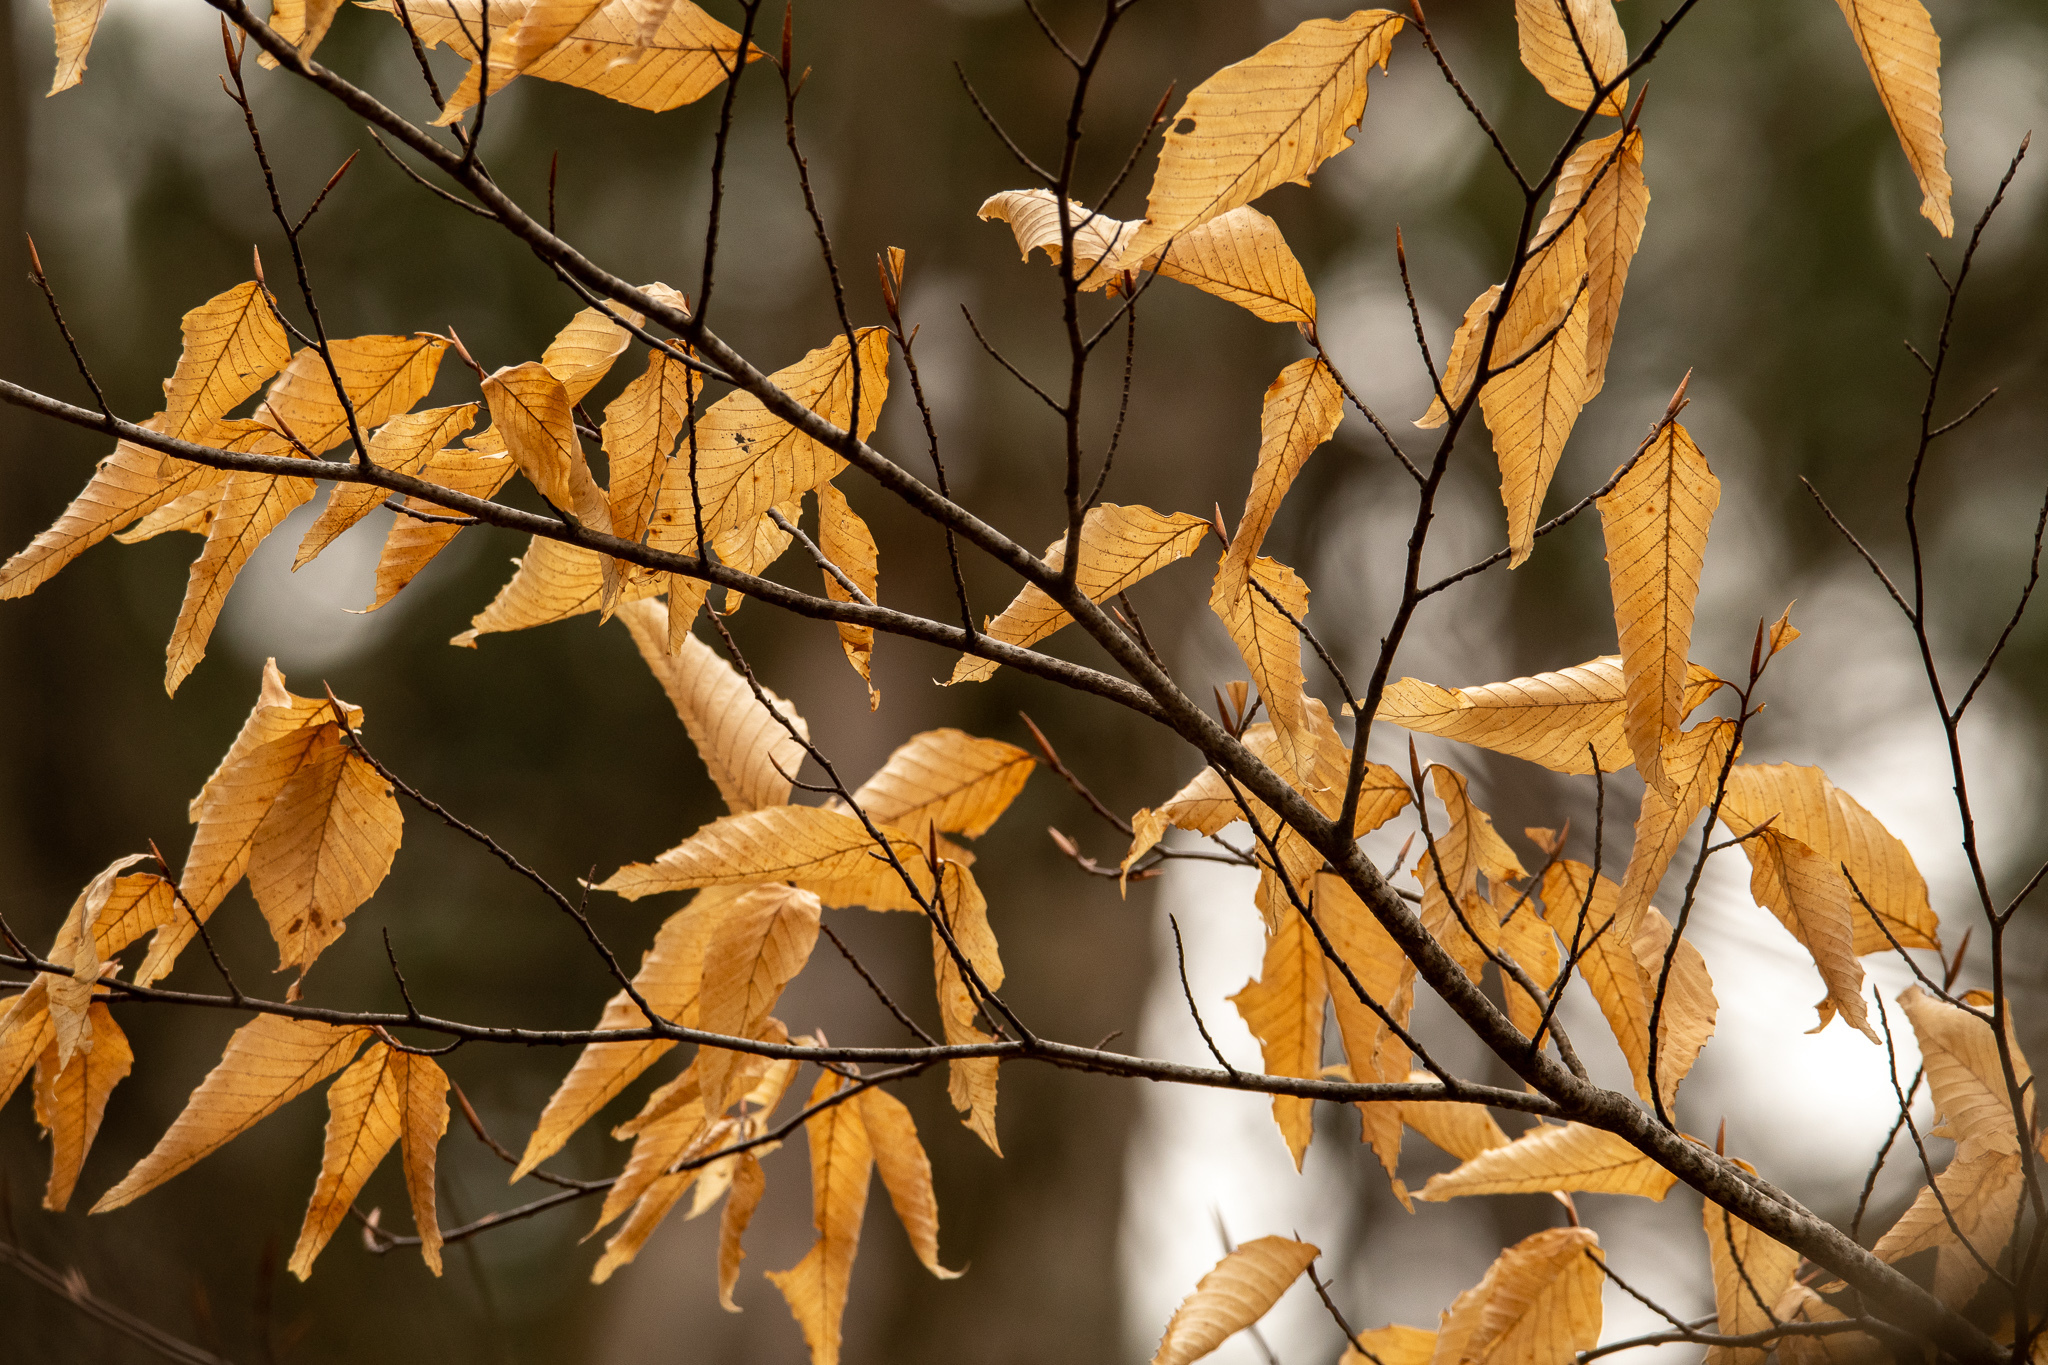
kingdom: Plantae
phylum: Tracheophyta
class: Magnoliopsida
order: Fagales
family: Fagaceae
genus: Fagus
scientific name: Fagus grandifolia
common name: American beech
